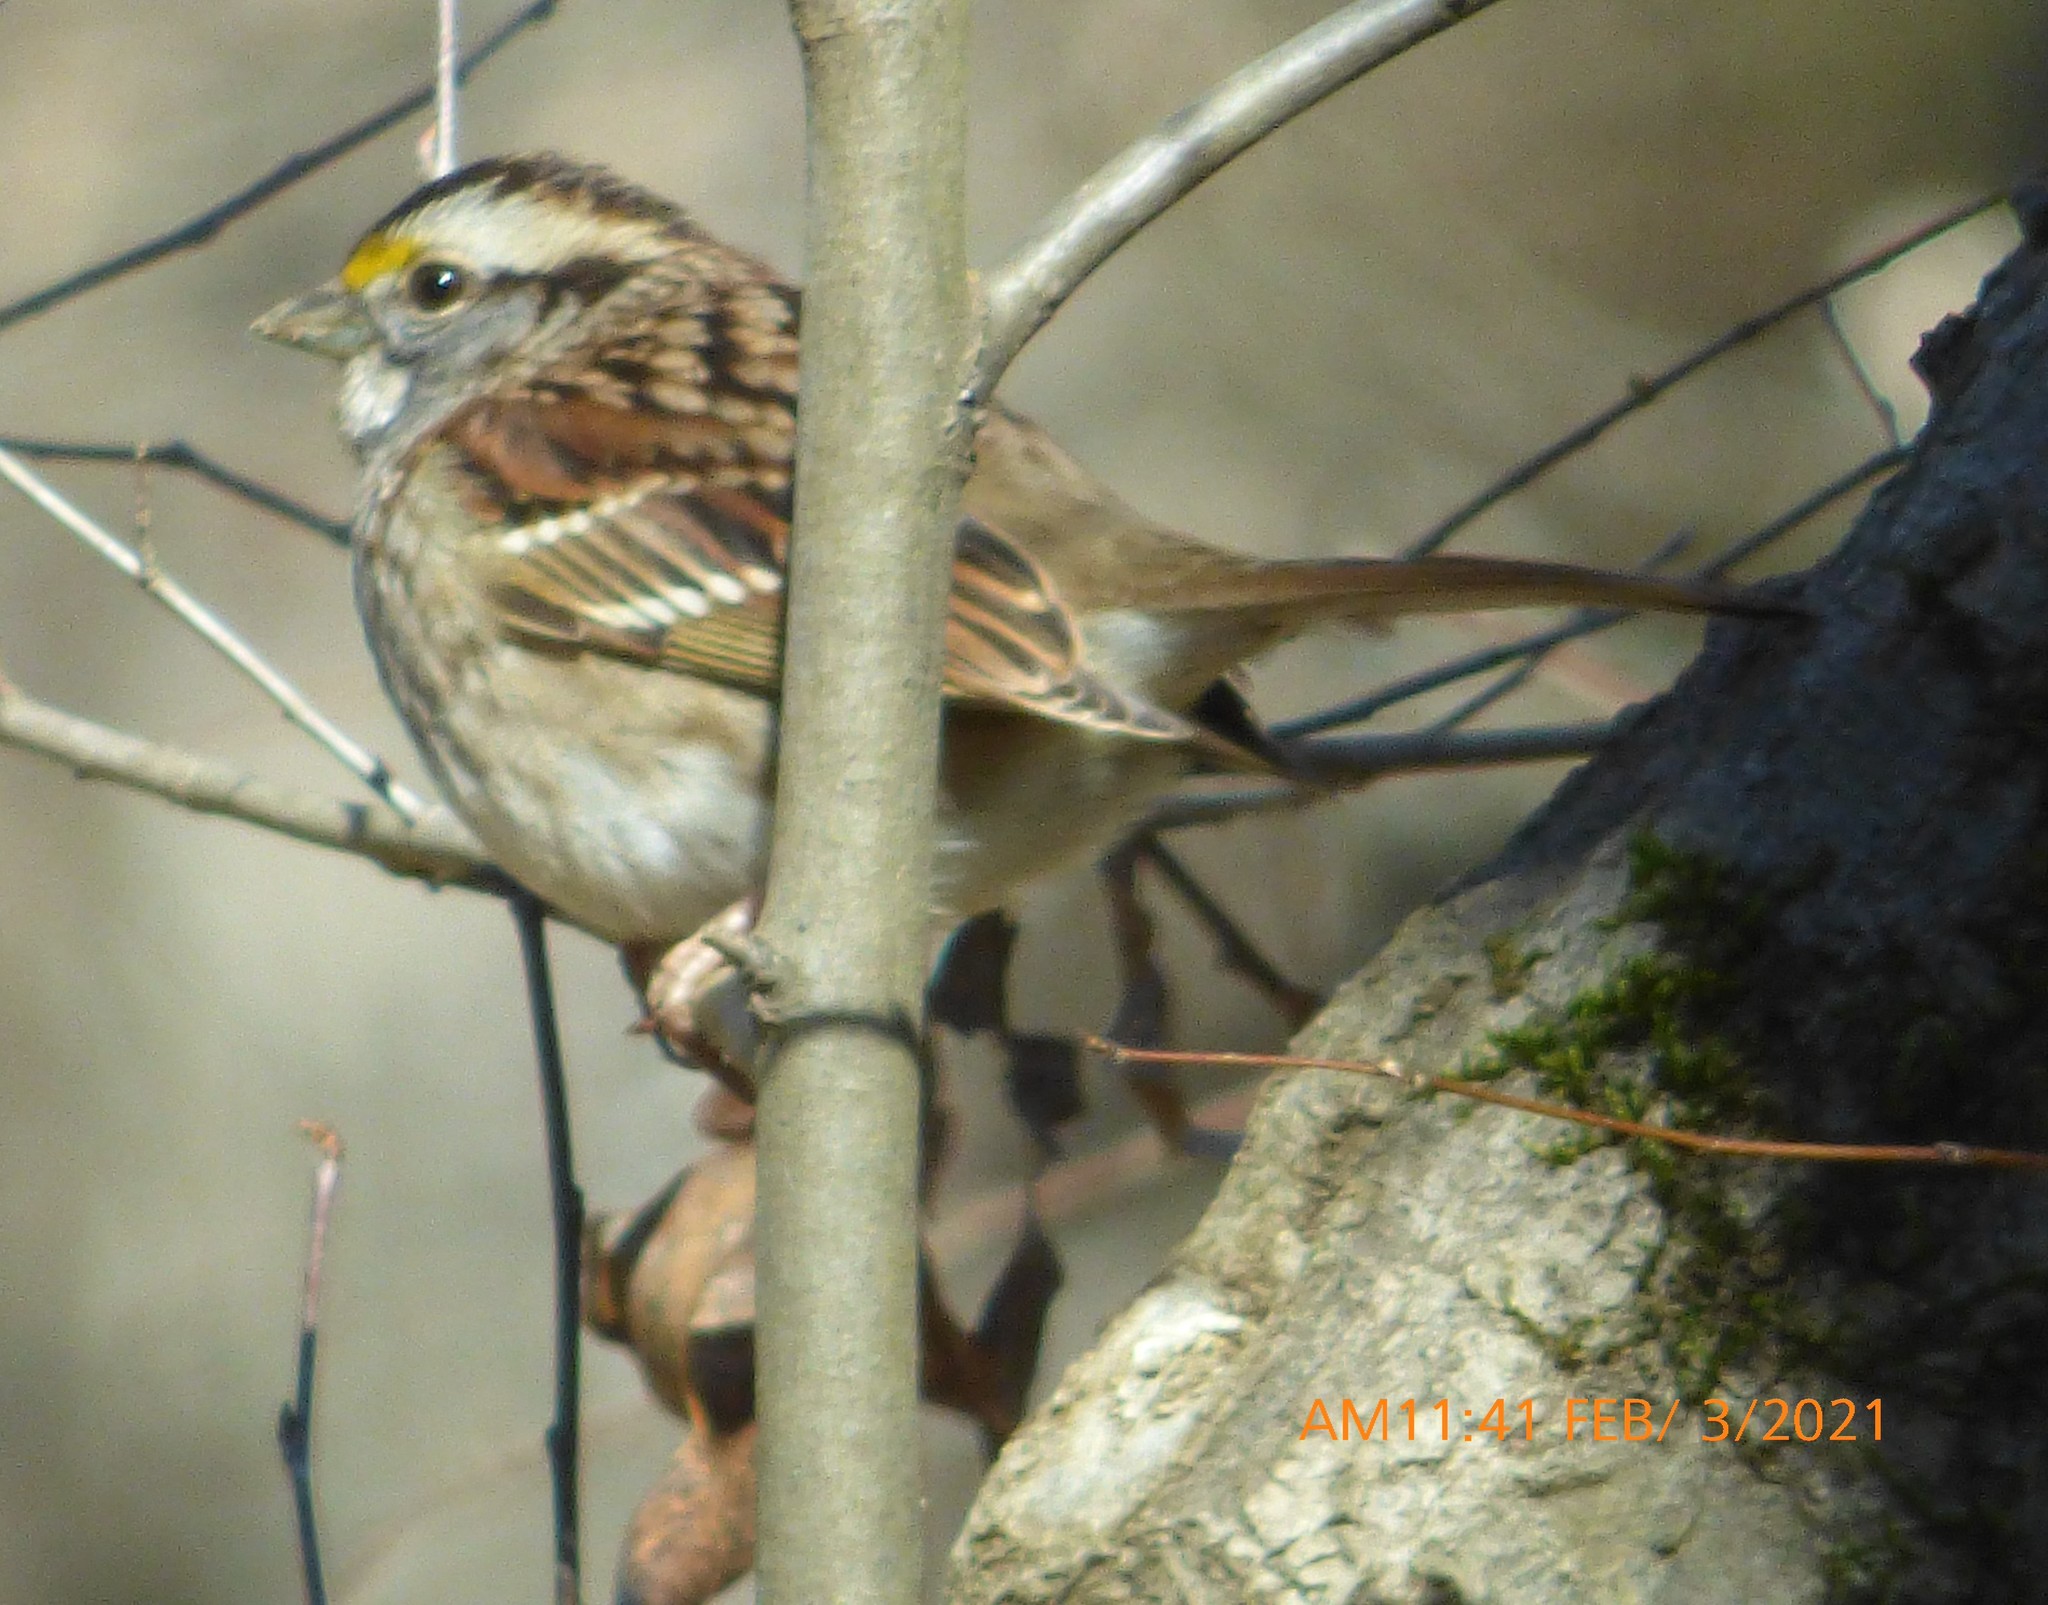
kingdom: Animalia
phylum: Chordata
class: Aves
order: Passeriformes
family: Passerellidae
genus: Zonotrichia
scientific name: Zonotrichia albicollis
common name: White-throated sparrow
